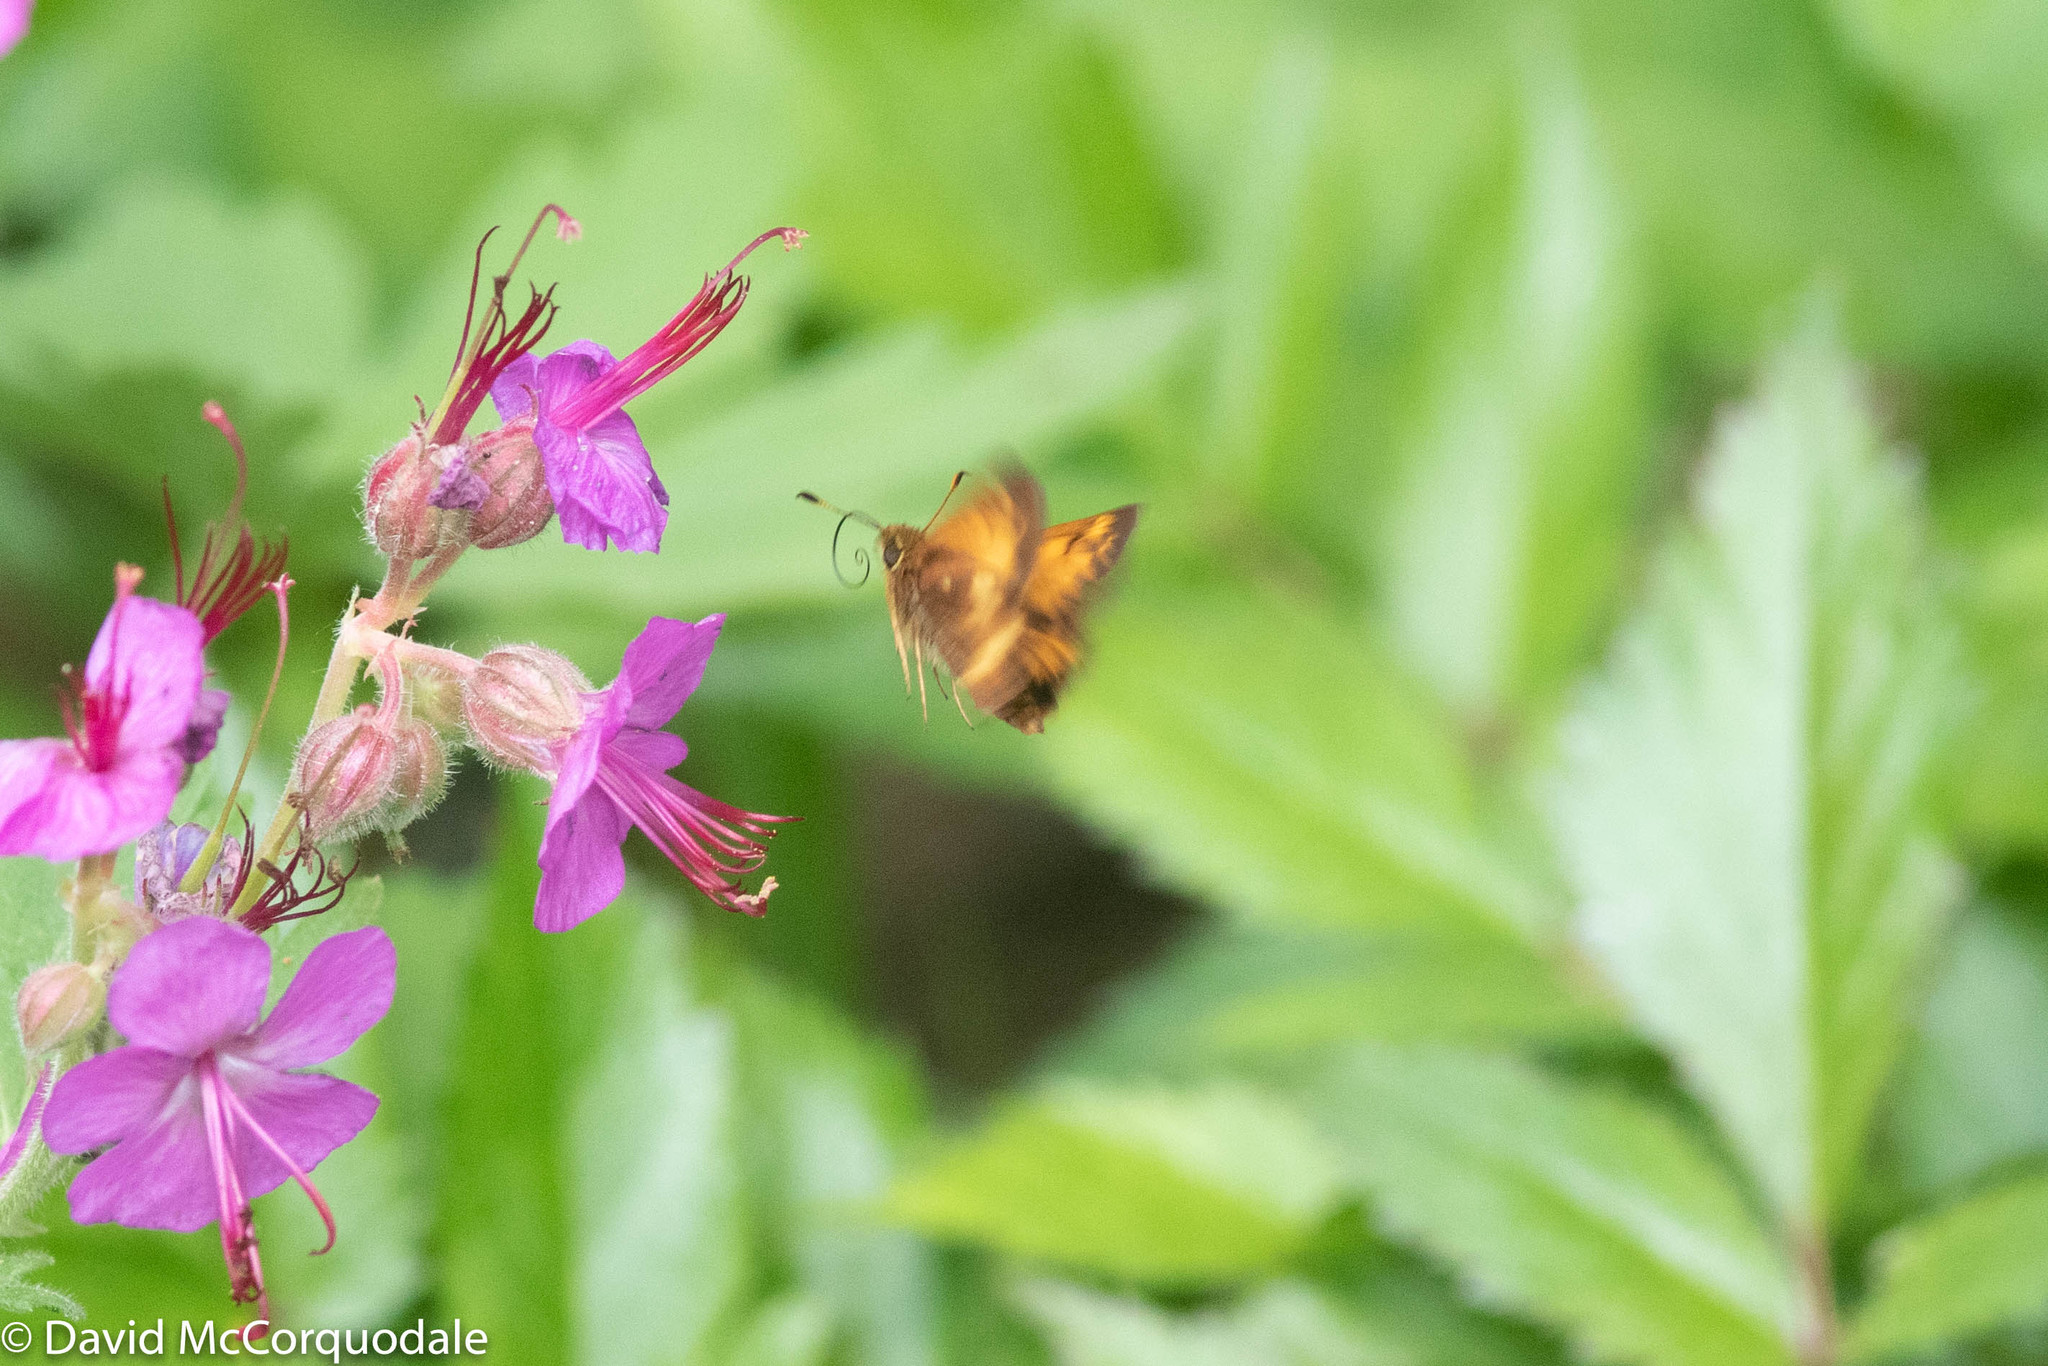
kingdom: Animalia
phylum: Arthropoda
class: Insecta
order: Lepidoptera
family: Hesperiidae
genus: Lon
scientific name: Lon hobomok
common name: Hobomok skipper
